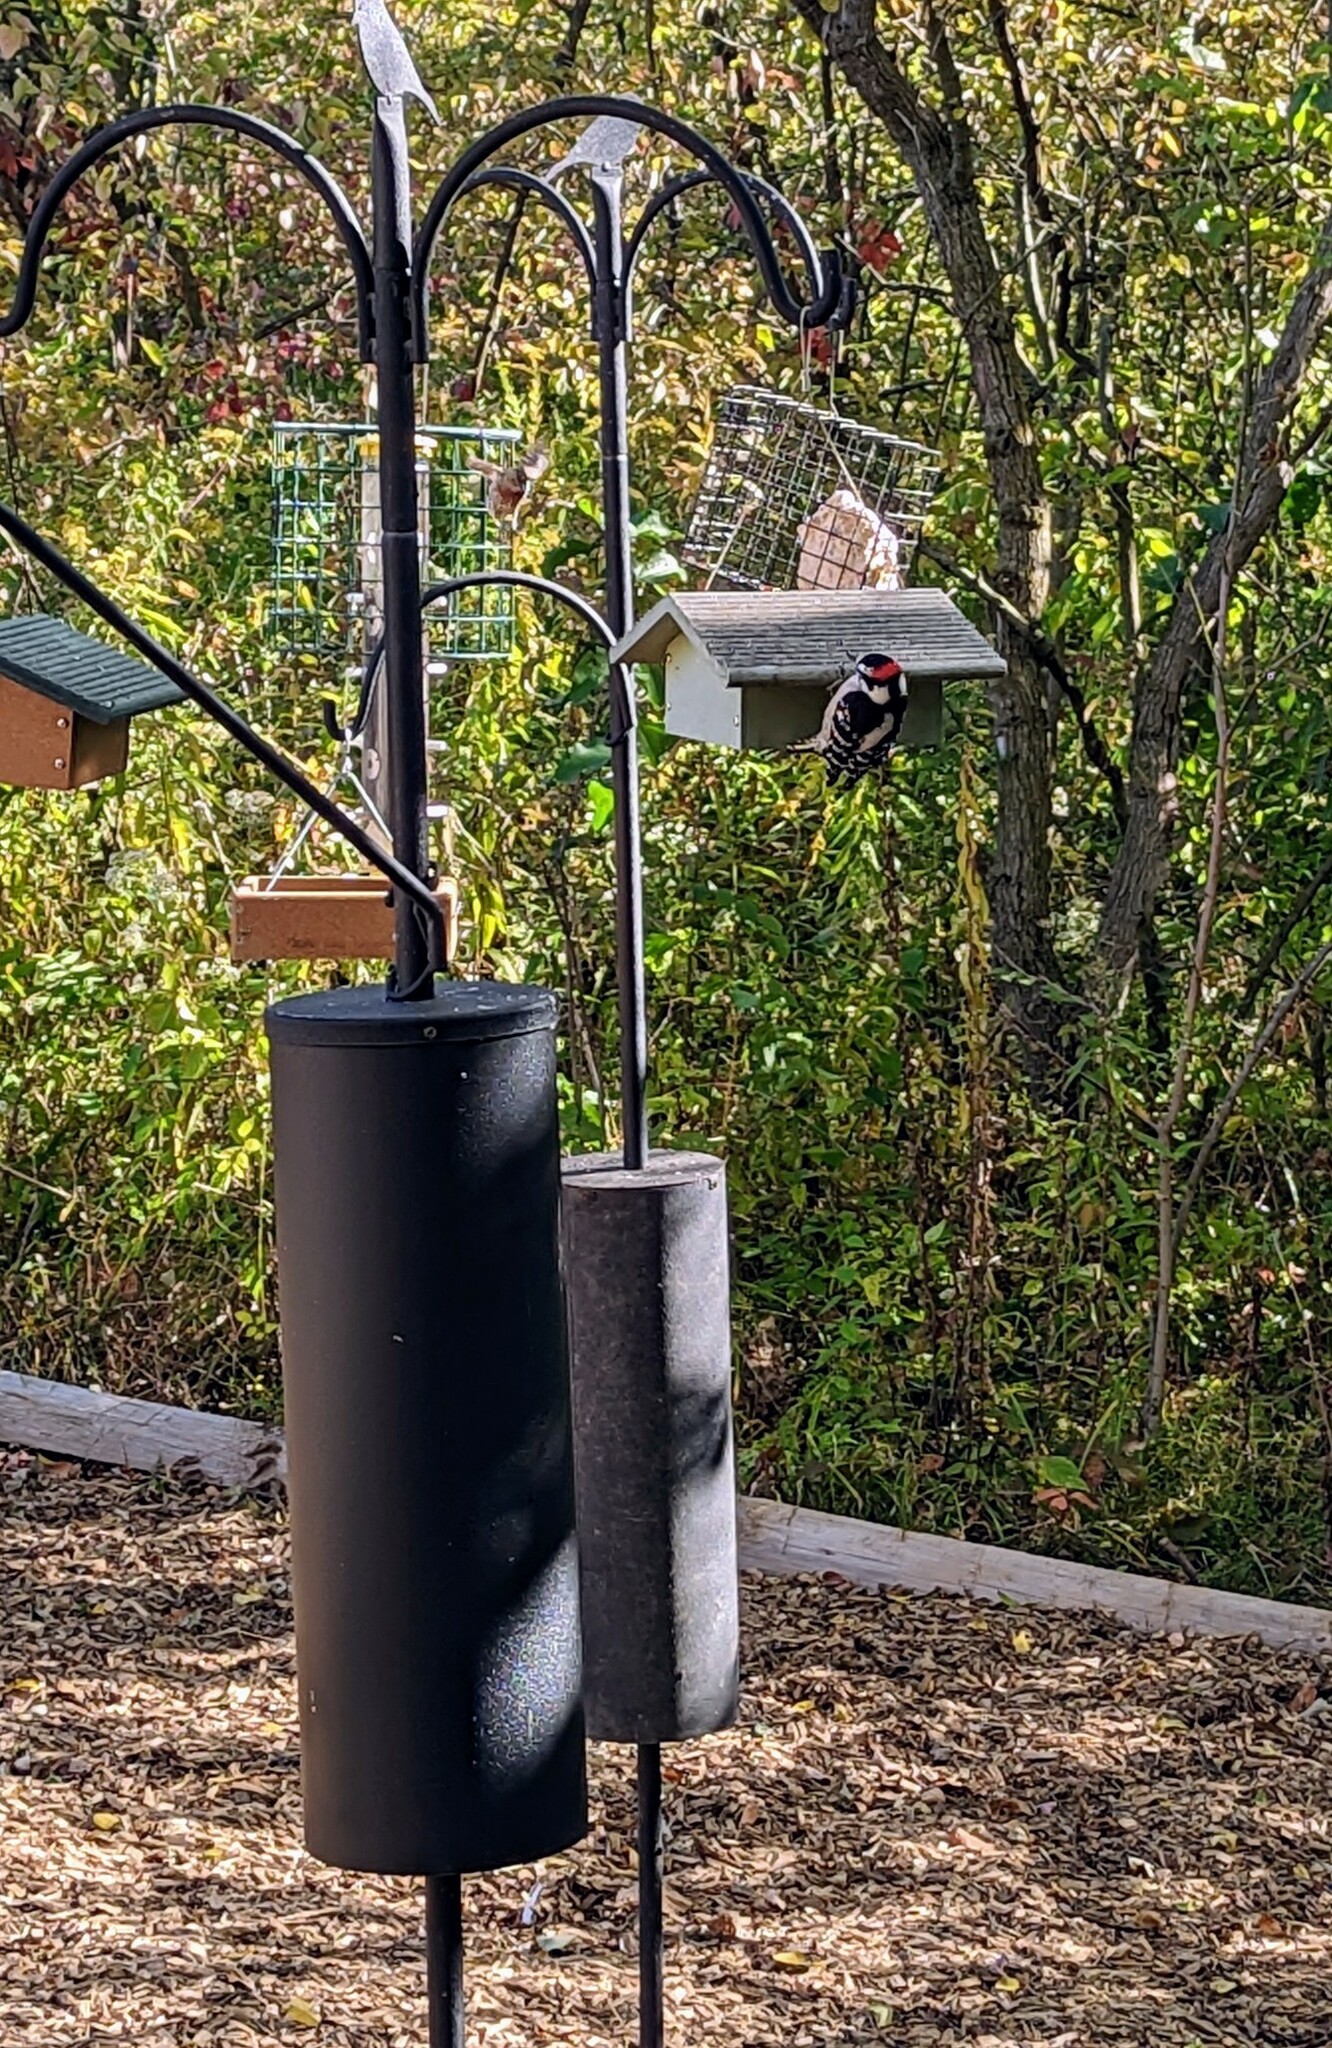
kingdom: Animalia
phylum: Chordata
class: Aves
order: Piciformes
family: Picidae
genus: Dryobates
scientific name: Dryobates pubescens
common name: Downy woodpecker
